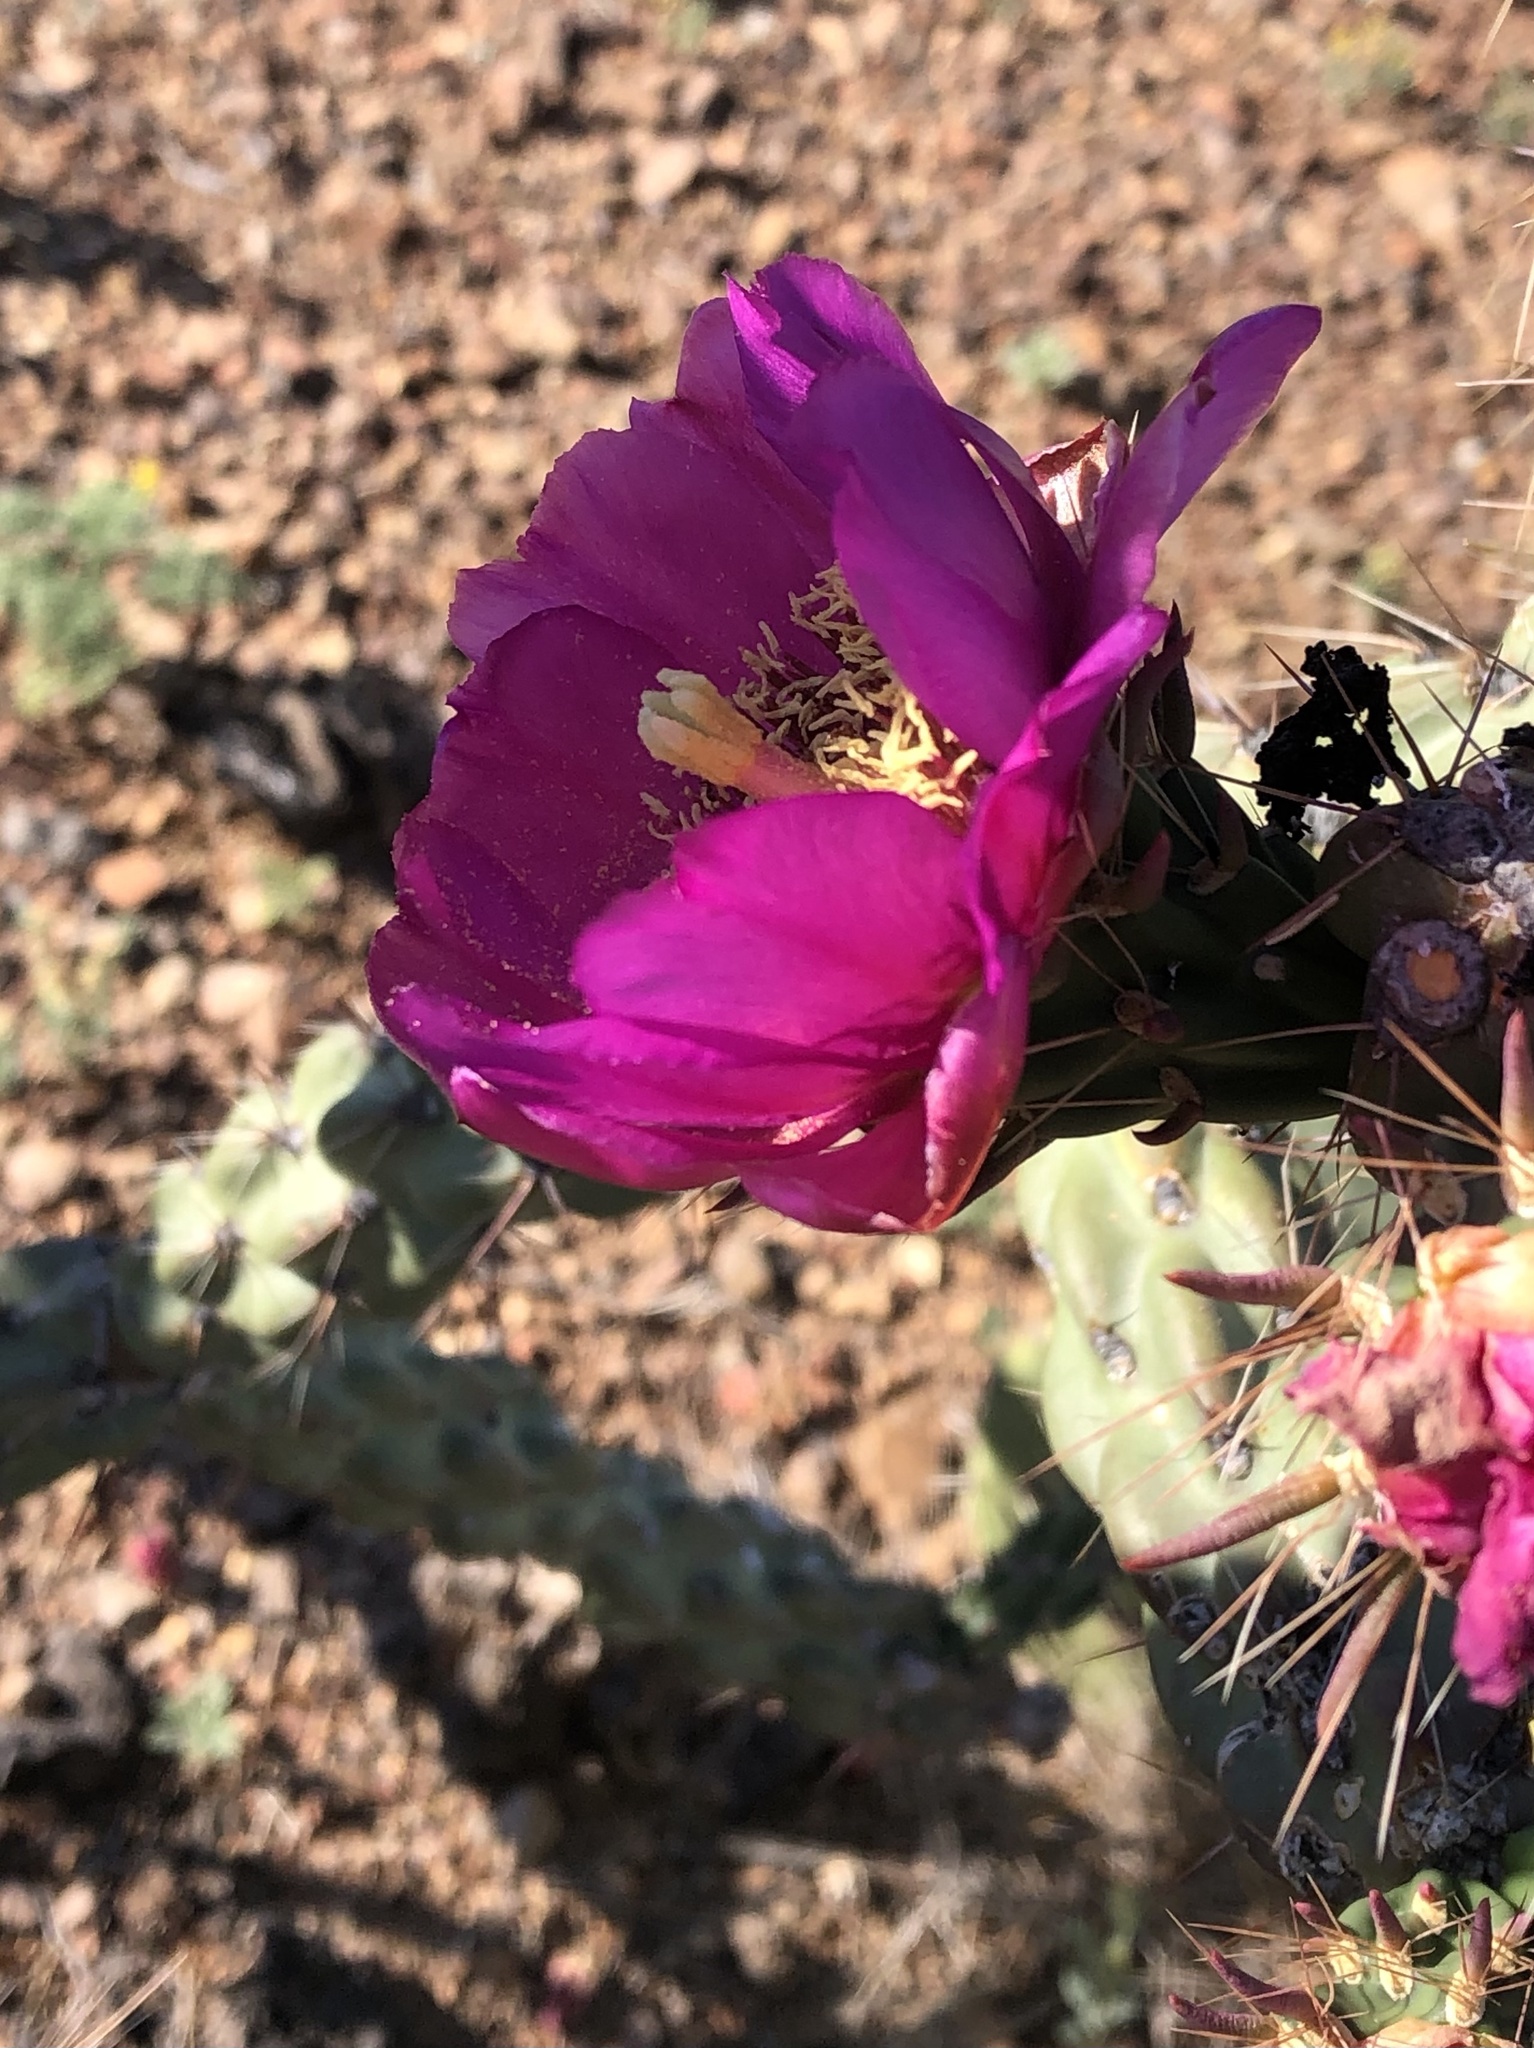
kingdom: Plantae
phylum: Tracheophyta
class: Magnoliopsida
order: Caryophyllales
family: Cactaceae
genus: Cylindropuntia
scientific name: Cylindropuntia imbricata
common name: Candelabrum cactus
